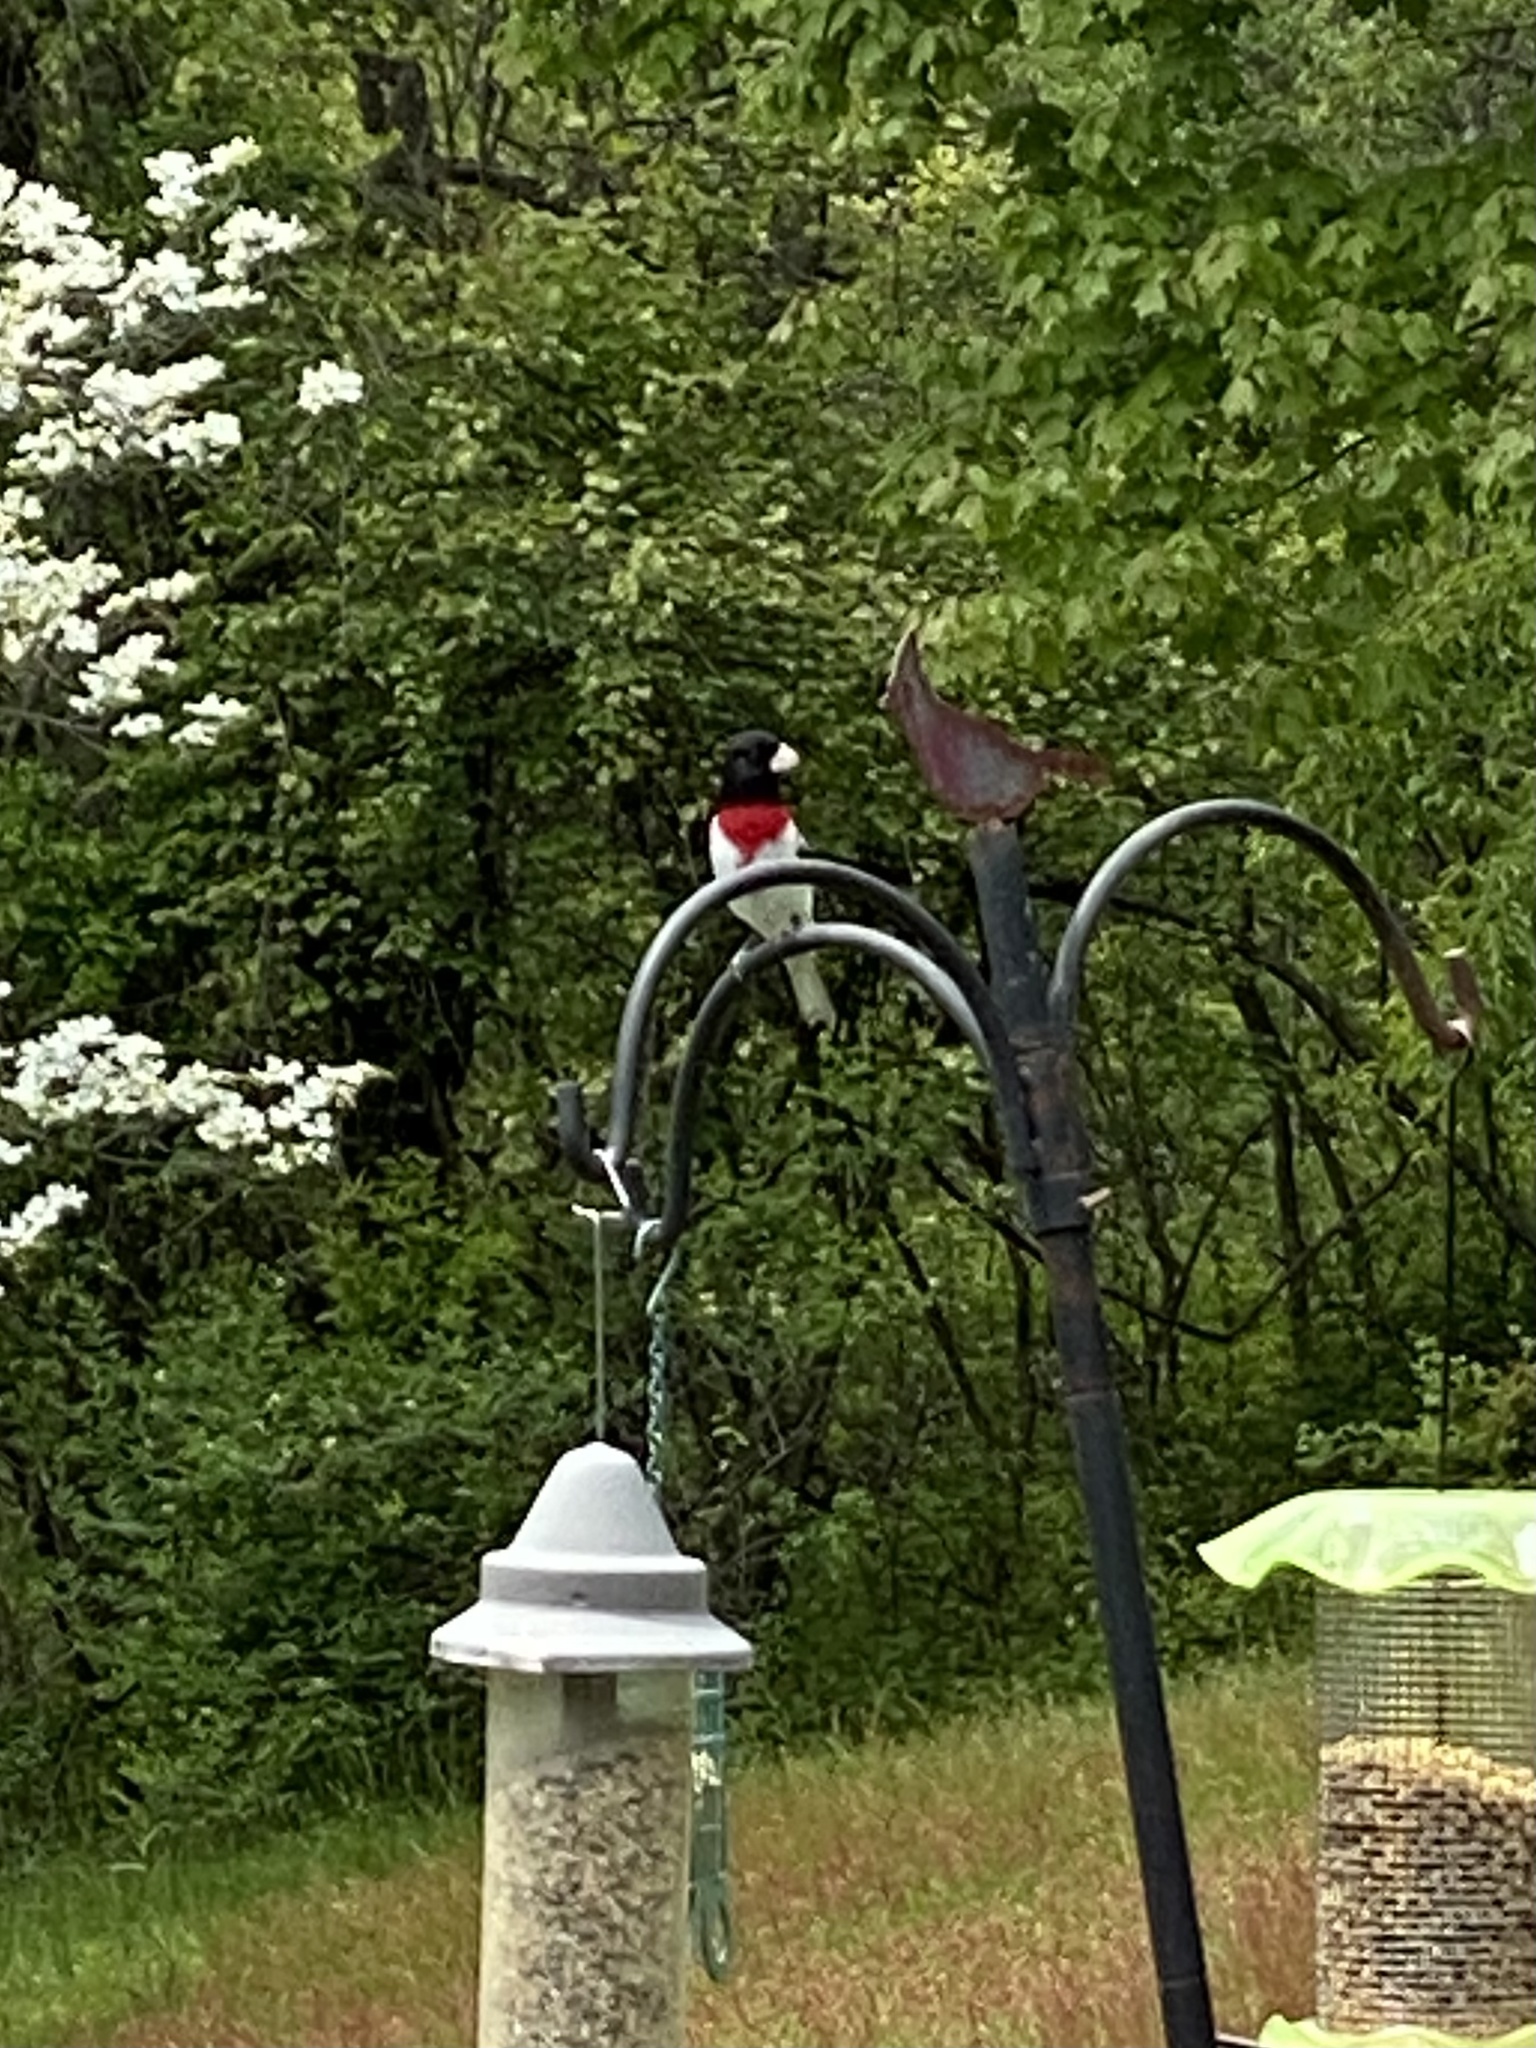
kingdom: Animalia
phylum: Chordata
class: Aves
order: Passeriformes
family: Cardinalidae
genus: Pheucticus
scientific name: Pheucticus ludovicianus
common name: Rose-breasted grosbeak
